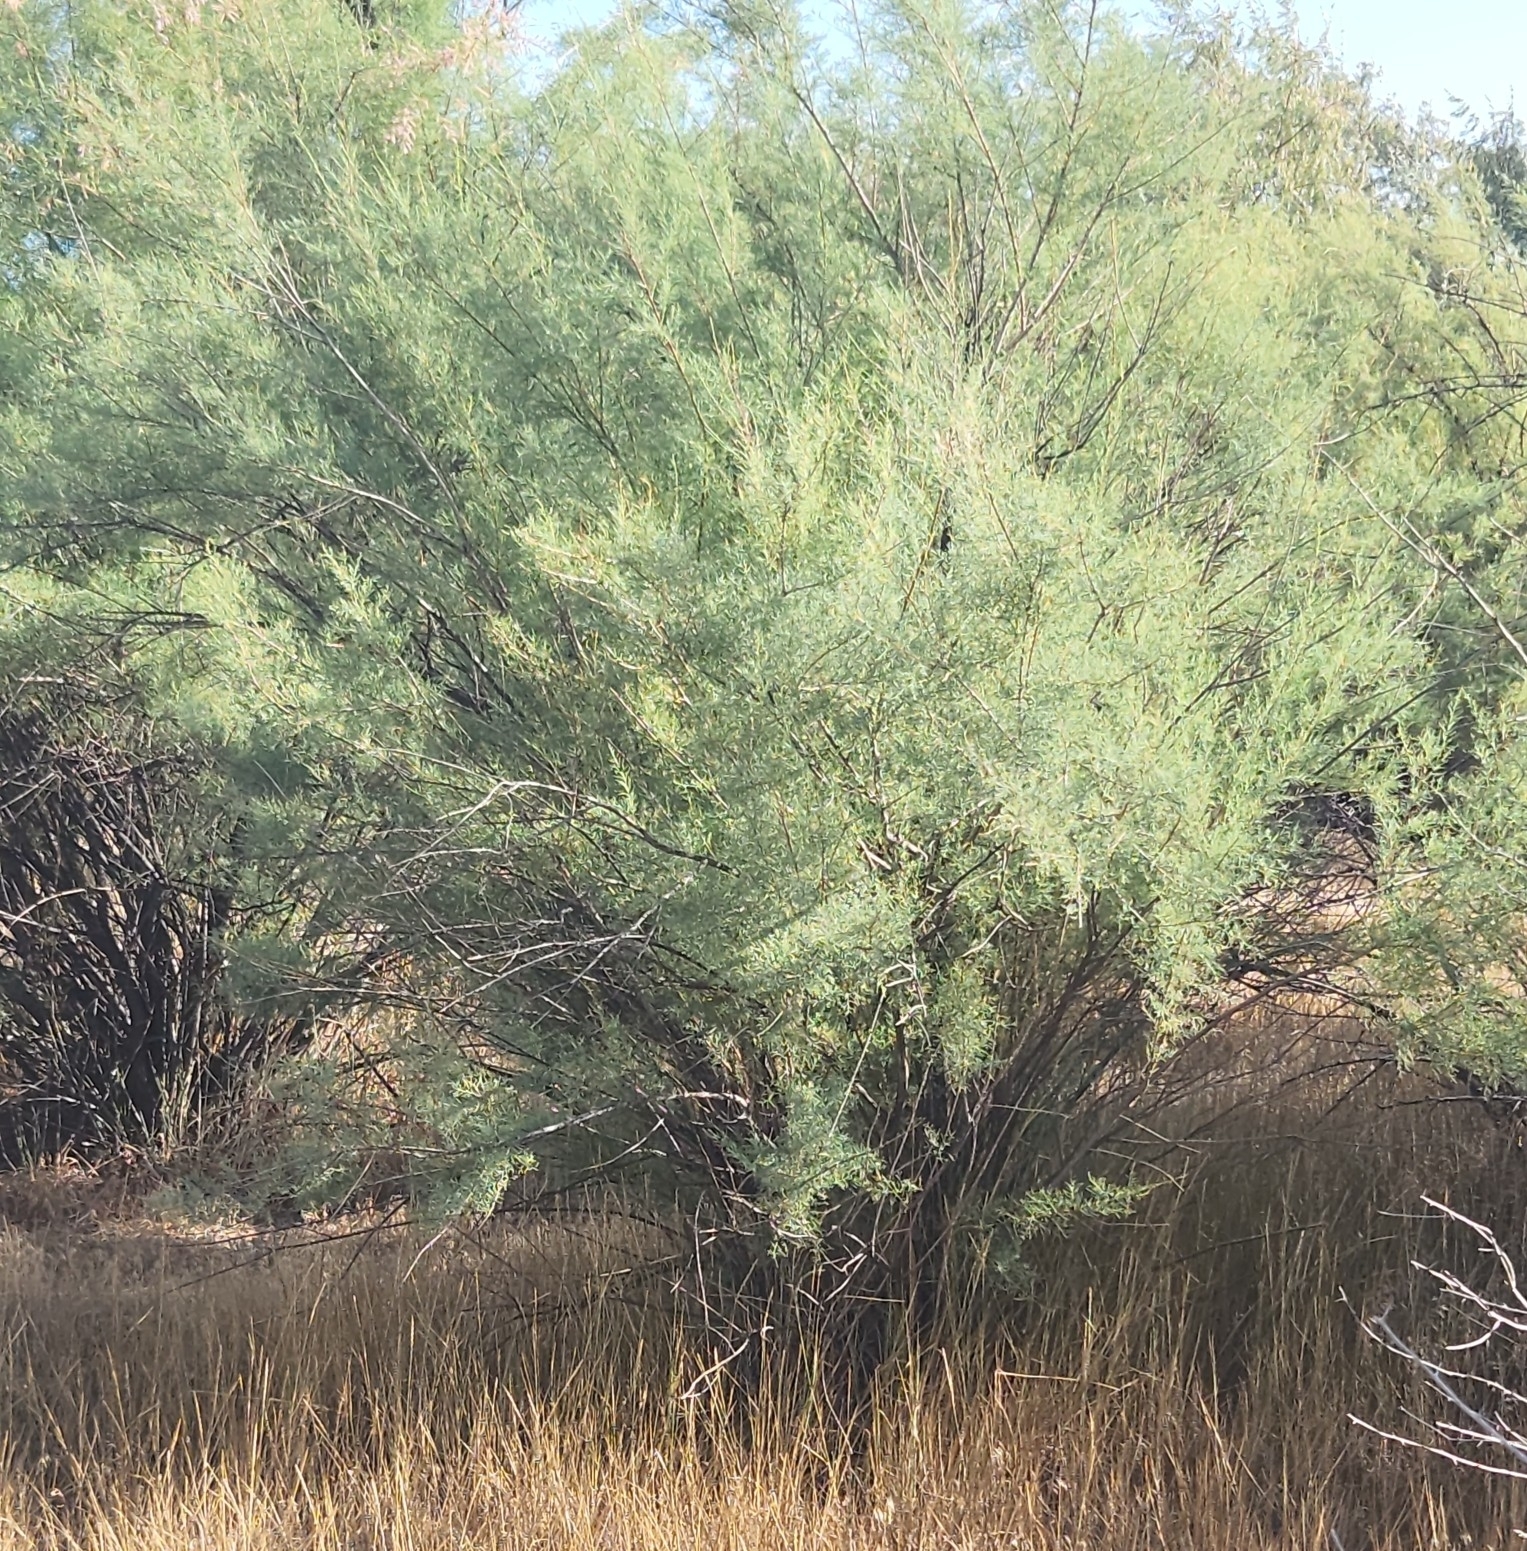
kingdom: Plantae
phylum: Tracheophyta
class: Magnoliopsida
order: Caryophyllales
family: Tamaricaceae
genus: Tamarix
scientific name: Tamarix
